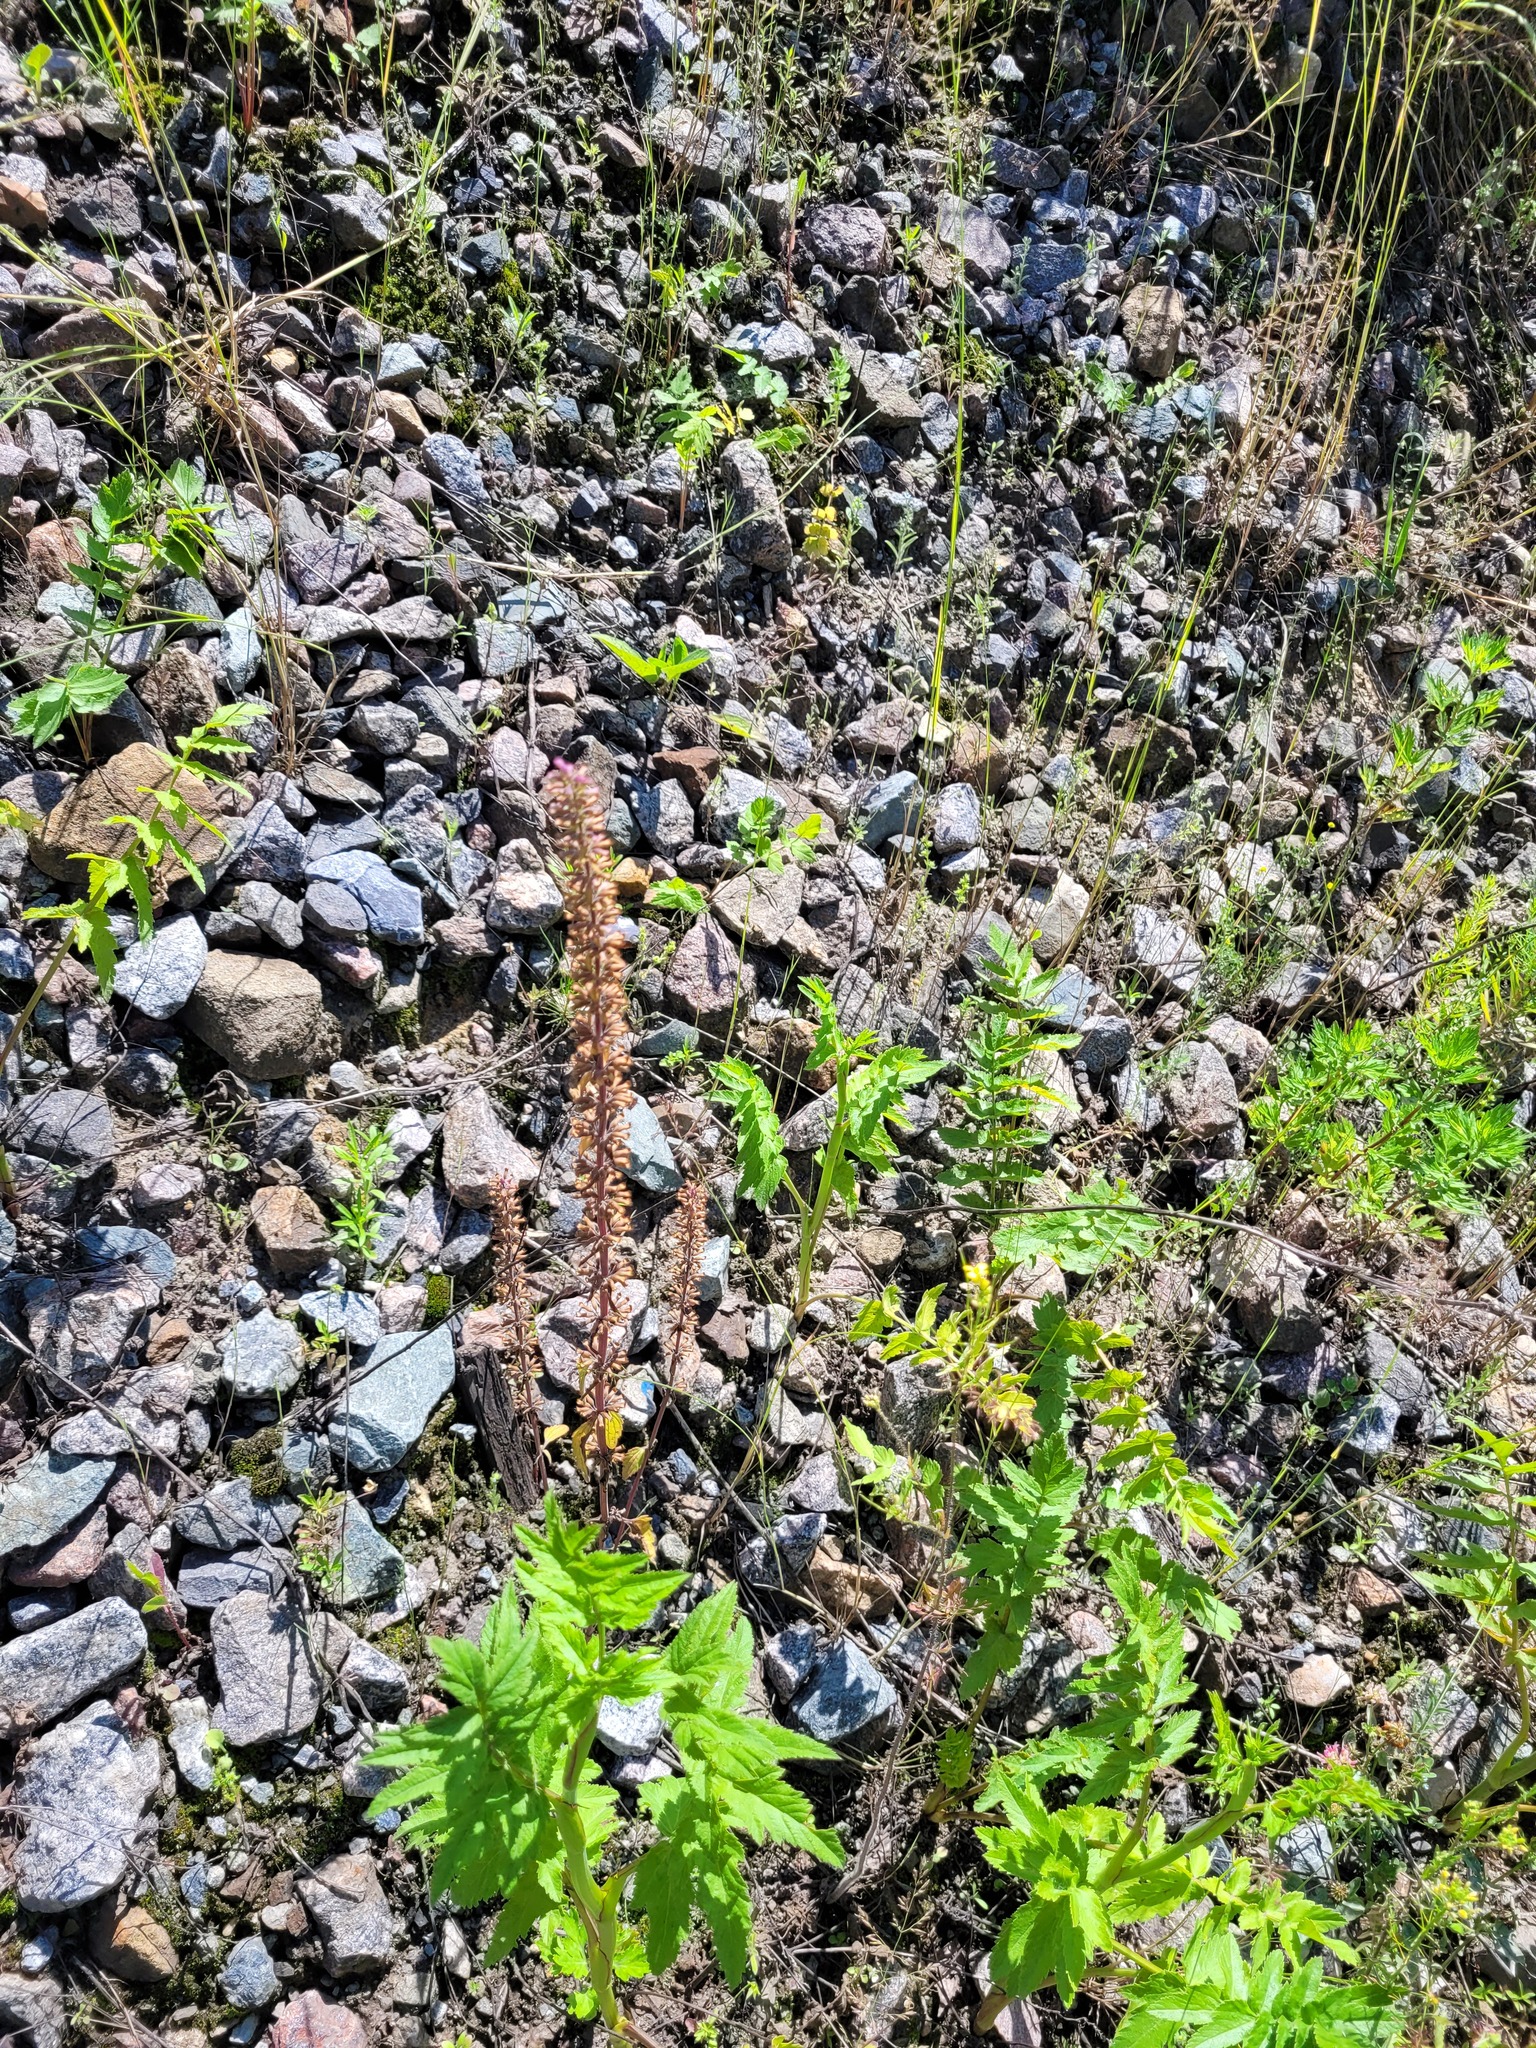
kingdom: Plantae
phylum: Tracheophyta
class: Magnoliopsida
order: Lamiales
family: Lamiaceae
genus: Dracocephalum
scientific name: Dracocephalum thymiflorum
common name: Thymeleaf dragonhead
